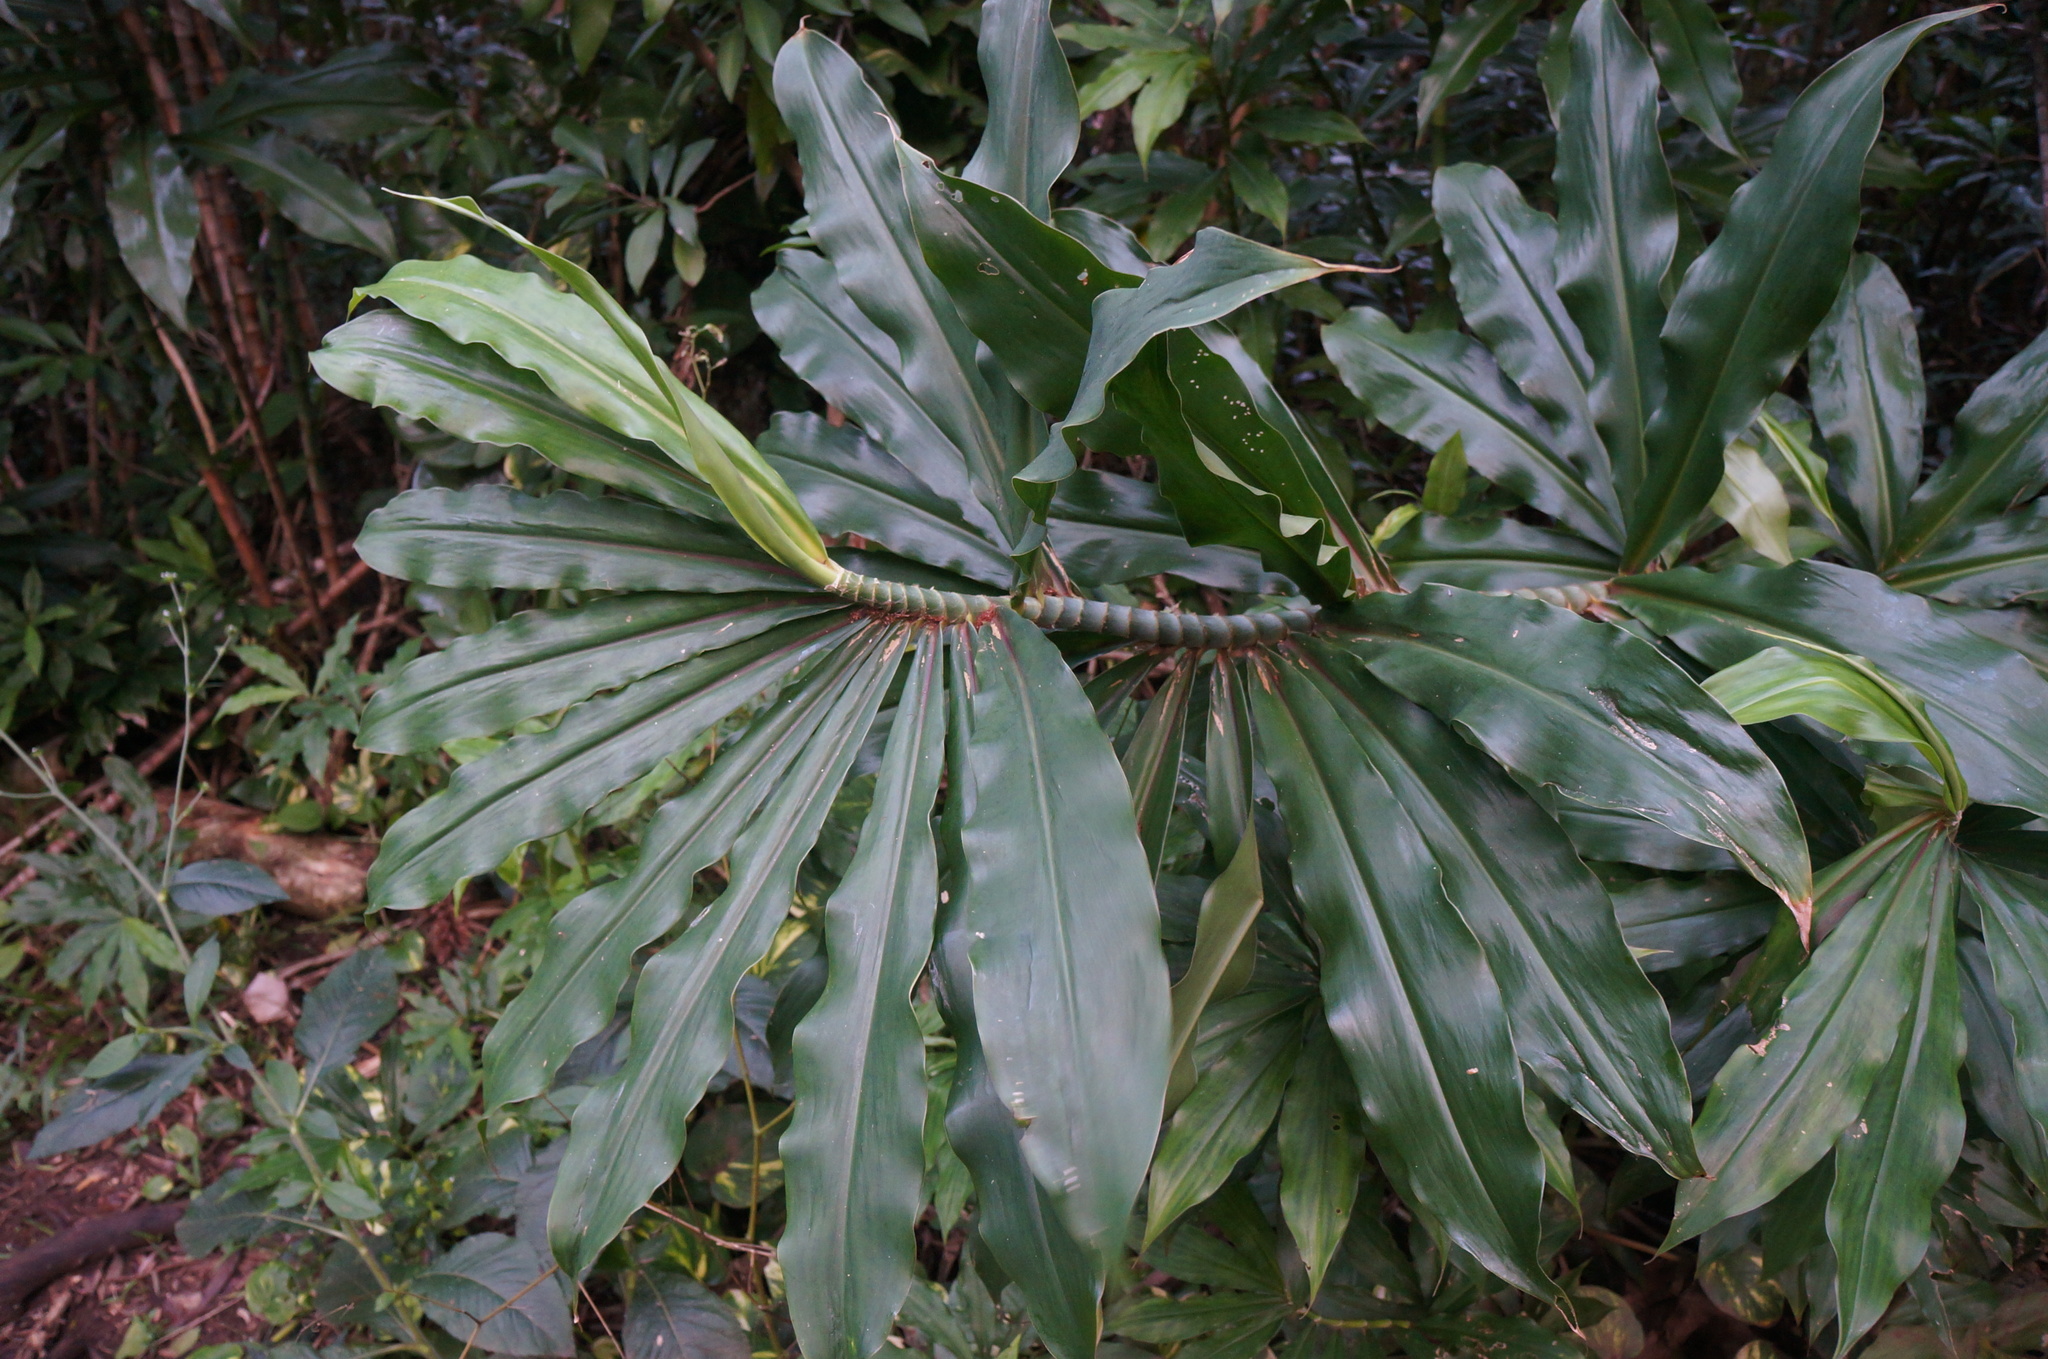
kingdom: Plantae
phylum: Tracheophyta
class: Liliopsida
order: Zingiberales
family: Costaceae
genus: Dimerocostus
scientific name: Dimerocostus strobilaceus
